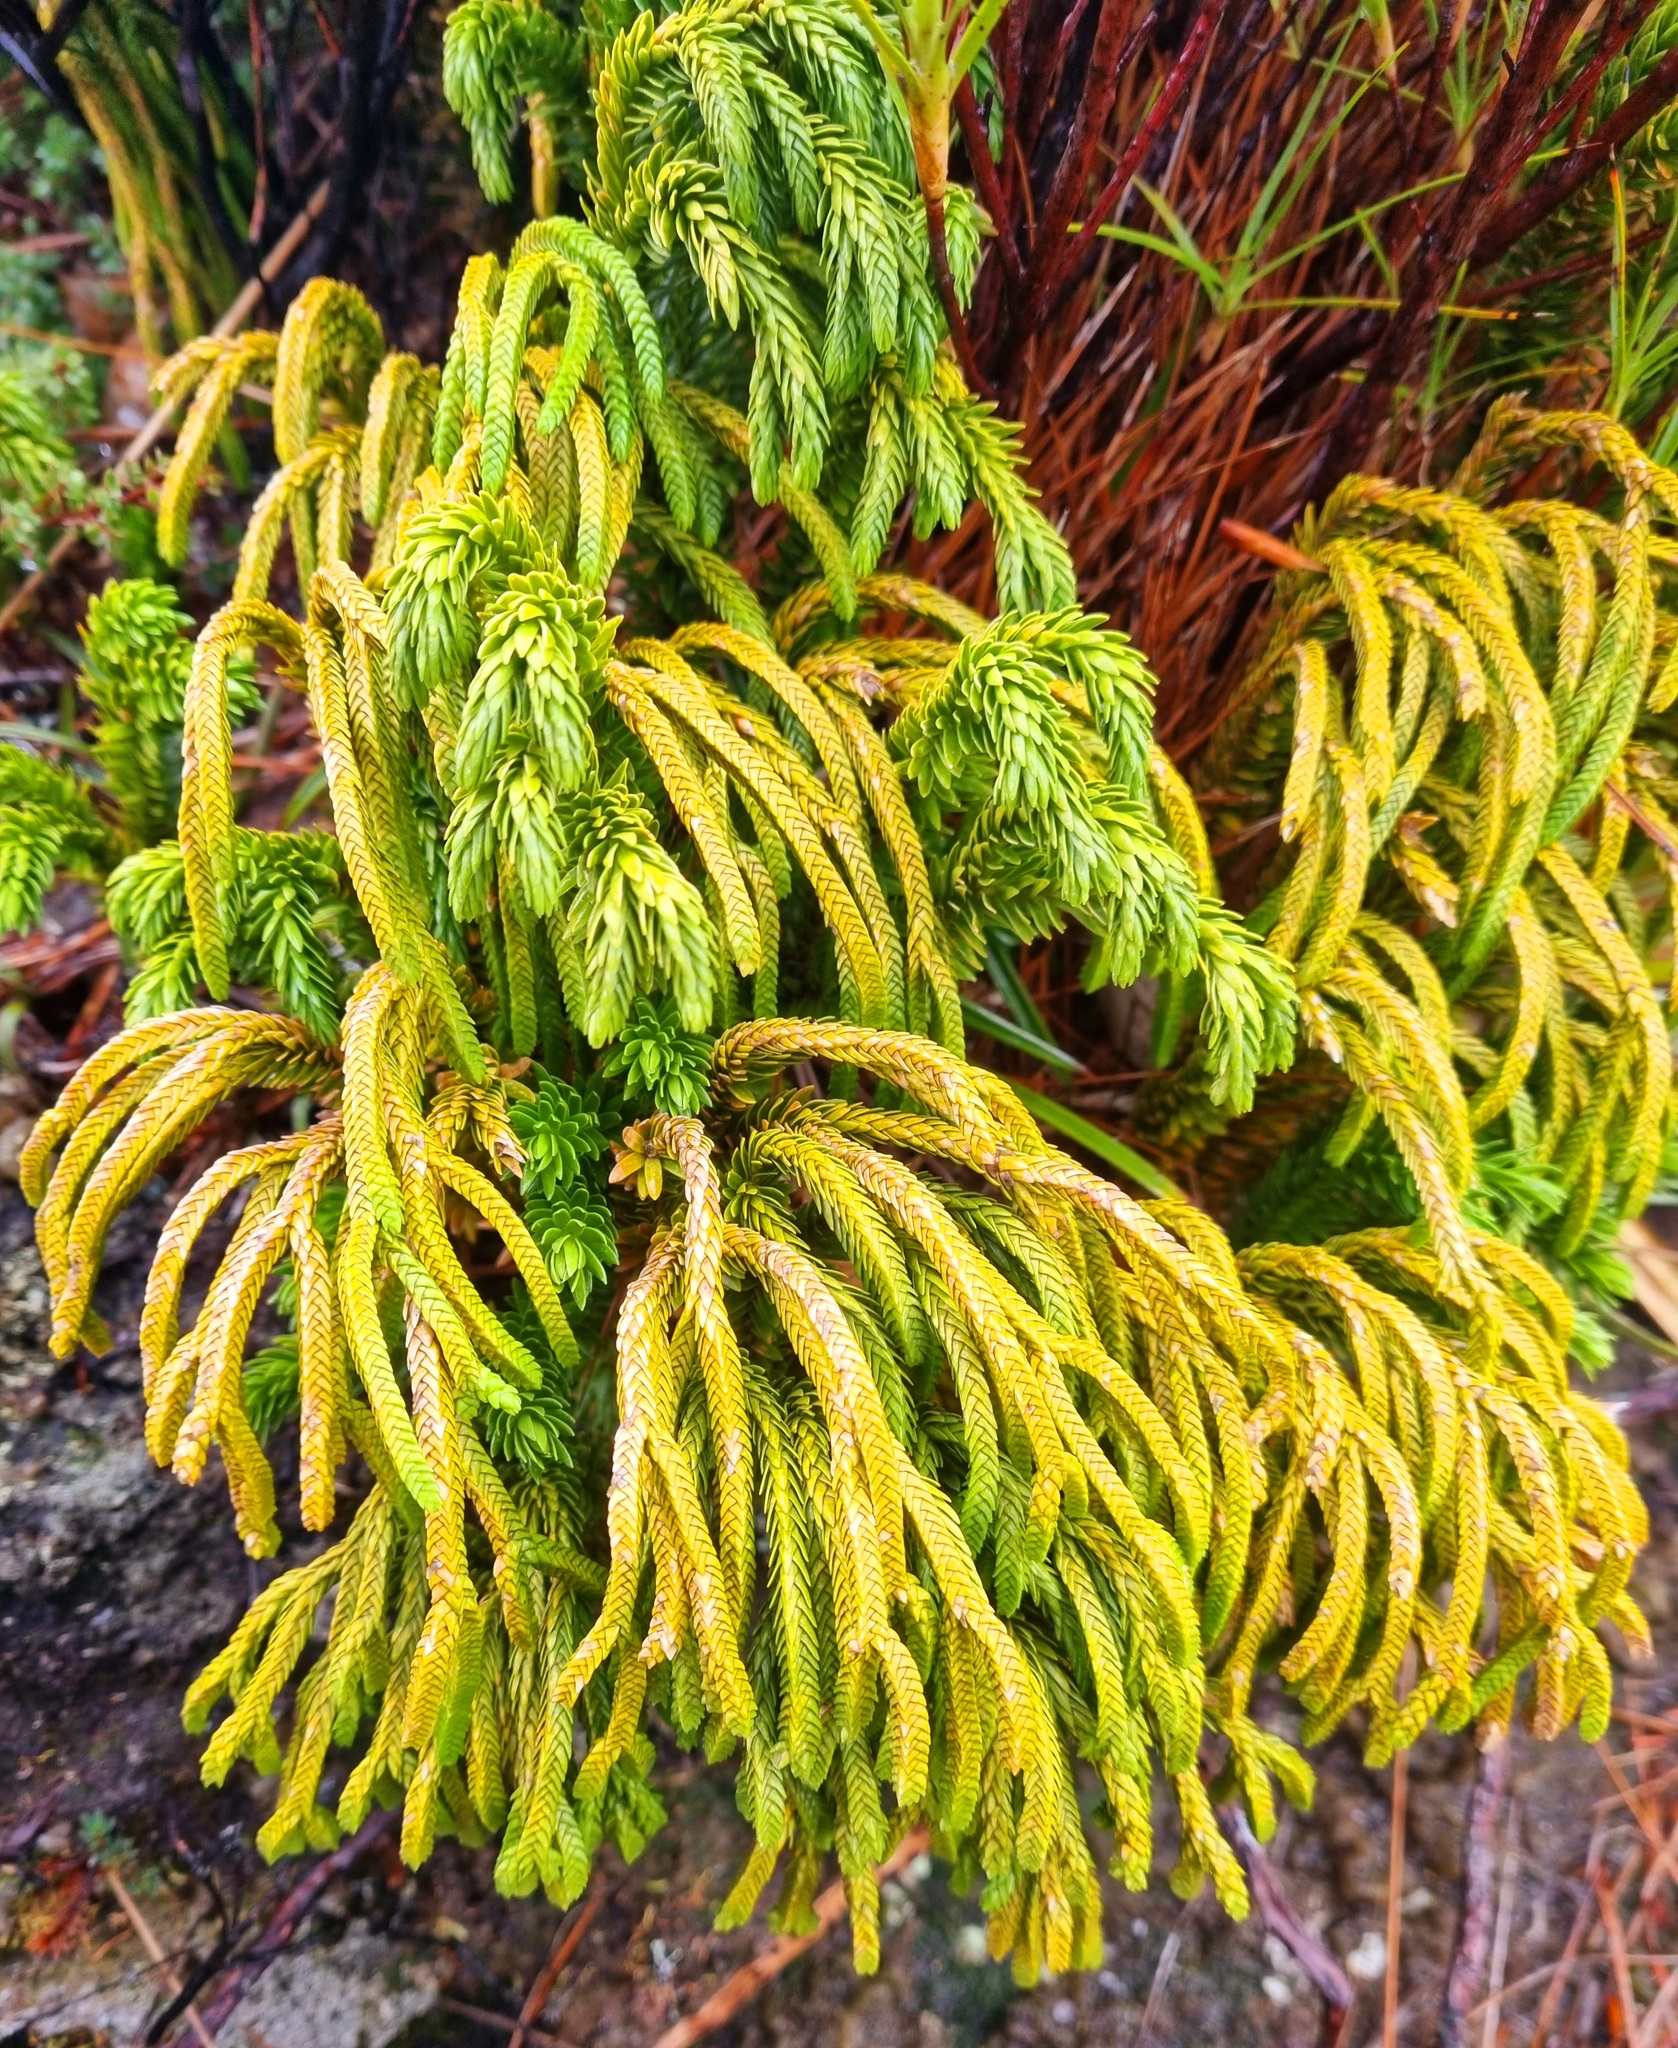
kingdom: Plantae
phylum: Tracheophyta
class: Lycopodiopsida
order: Lycopodiales
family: Lycopodiaceae
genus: Phlegmariurus
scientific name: Phlegmariurus varius
